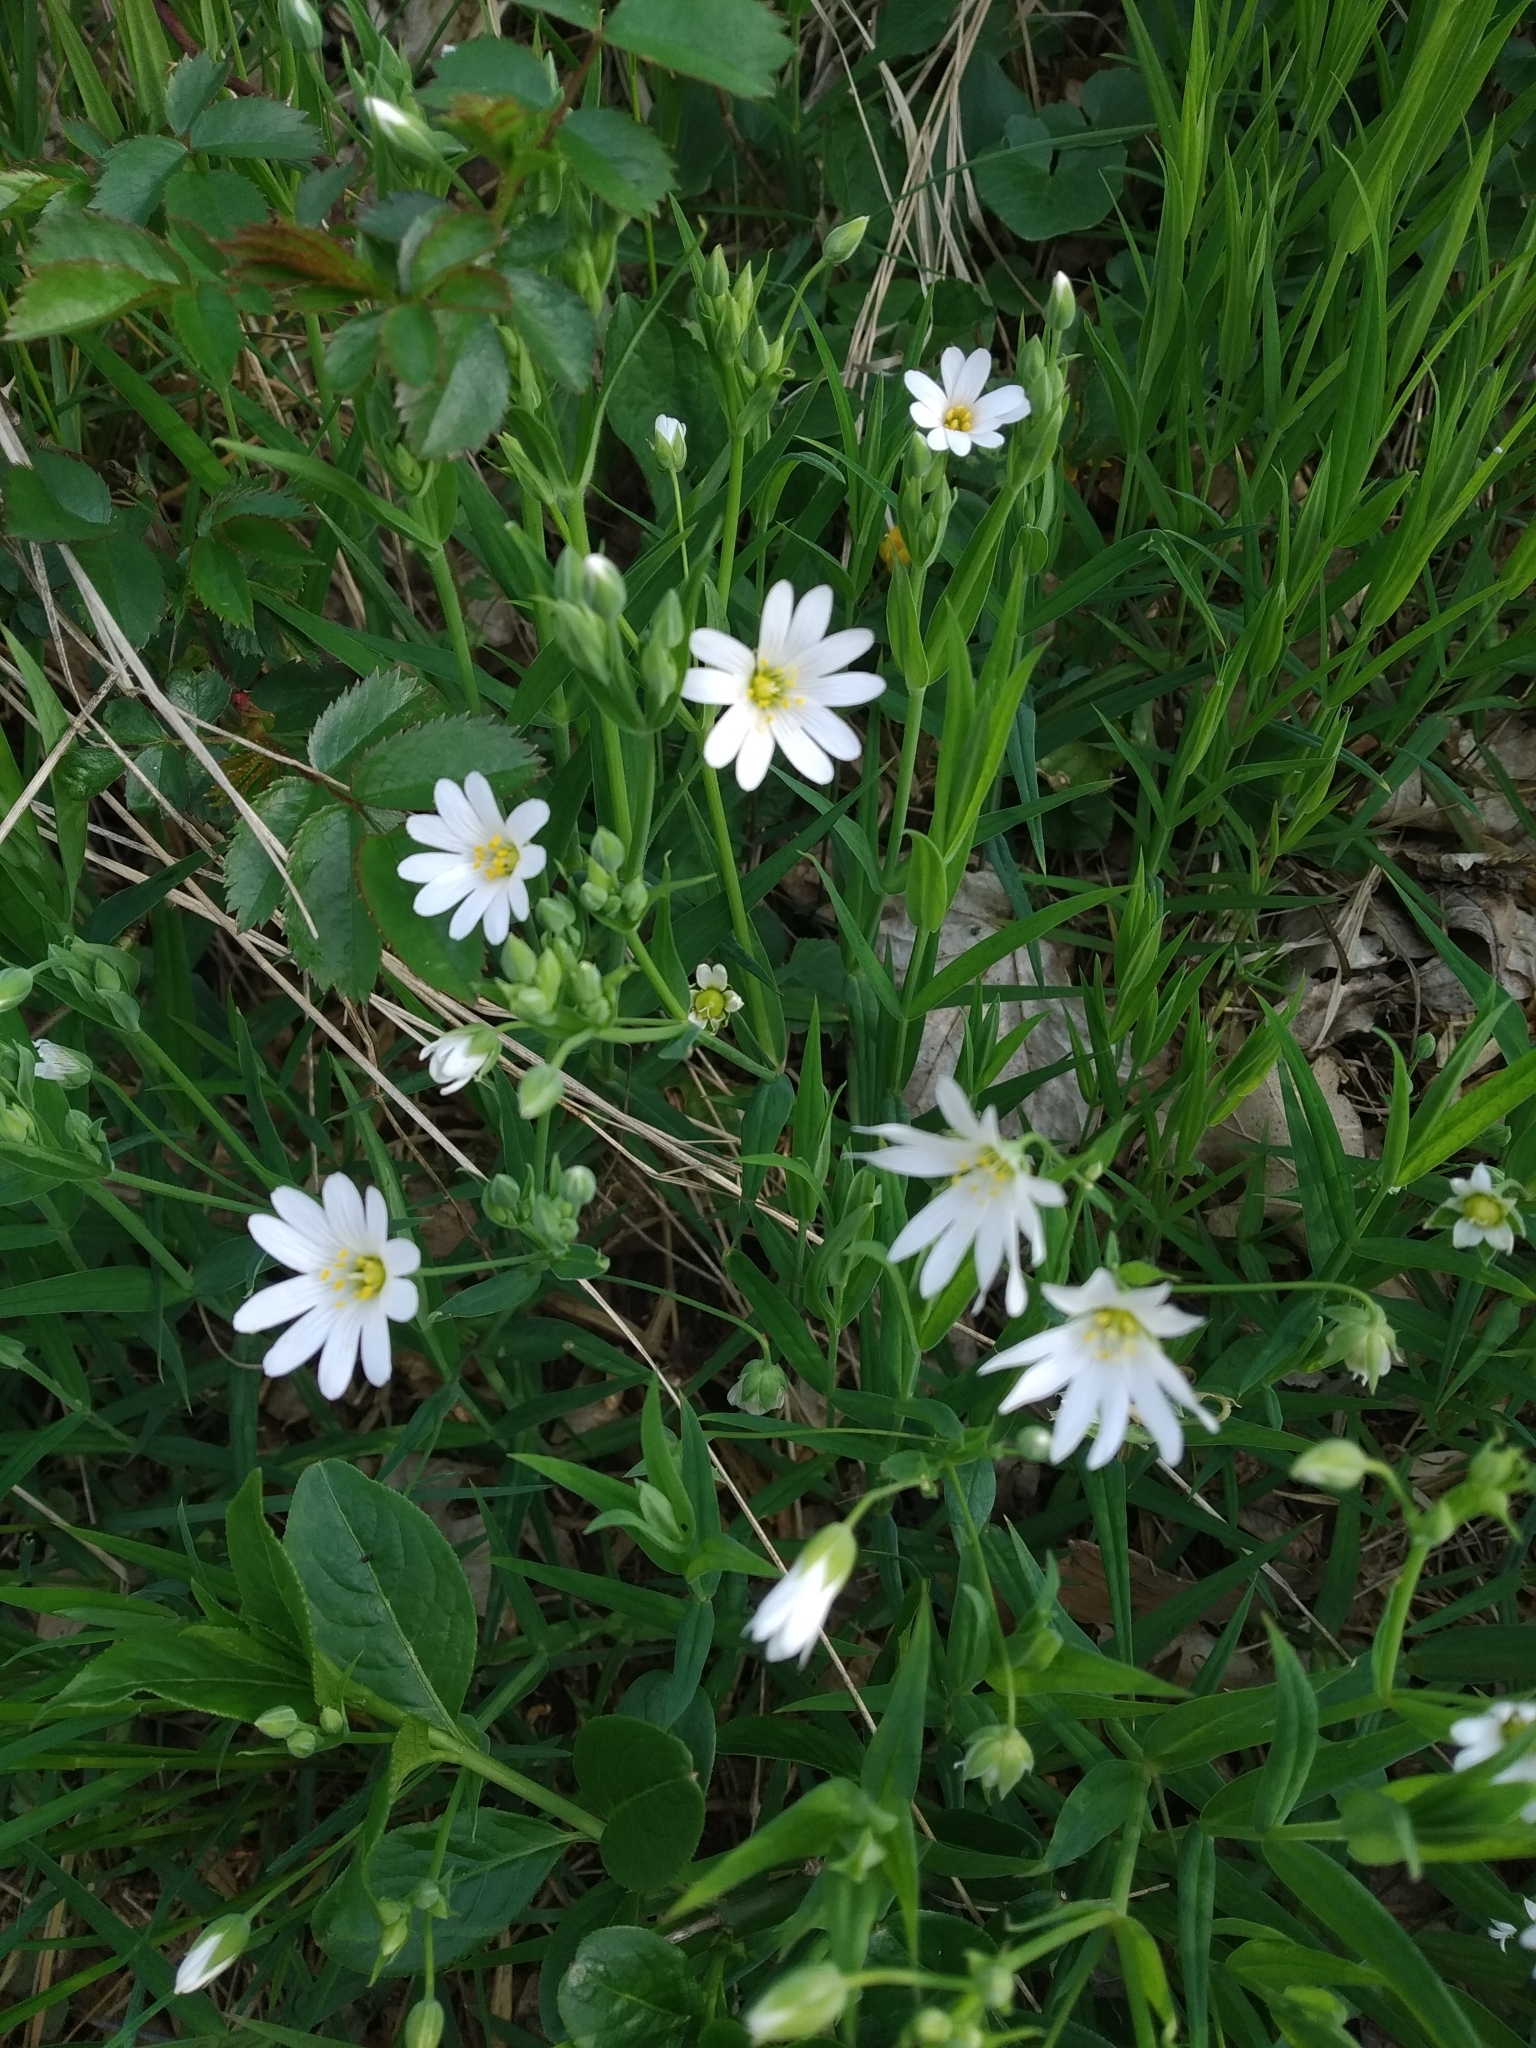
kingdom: Plantae
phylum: Tracheophyta
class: Magnoliopsida
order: Caryophyllales
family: Caryophyllaceae
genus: Rabelera
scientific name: Rabelera holostea
